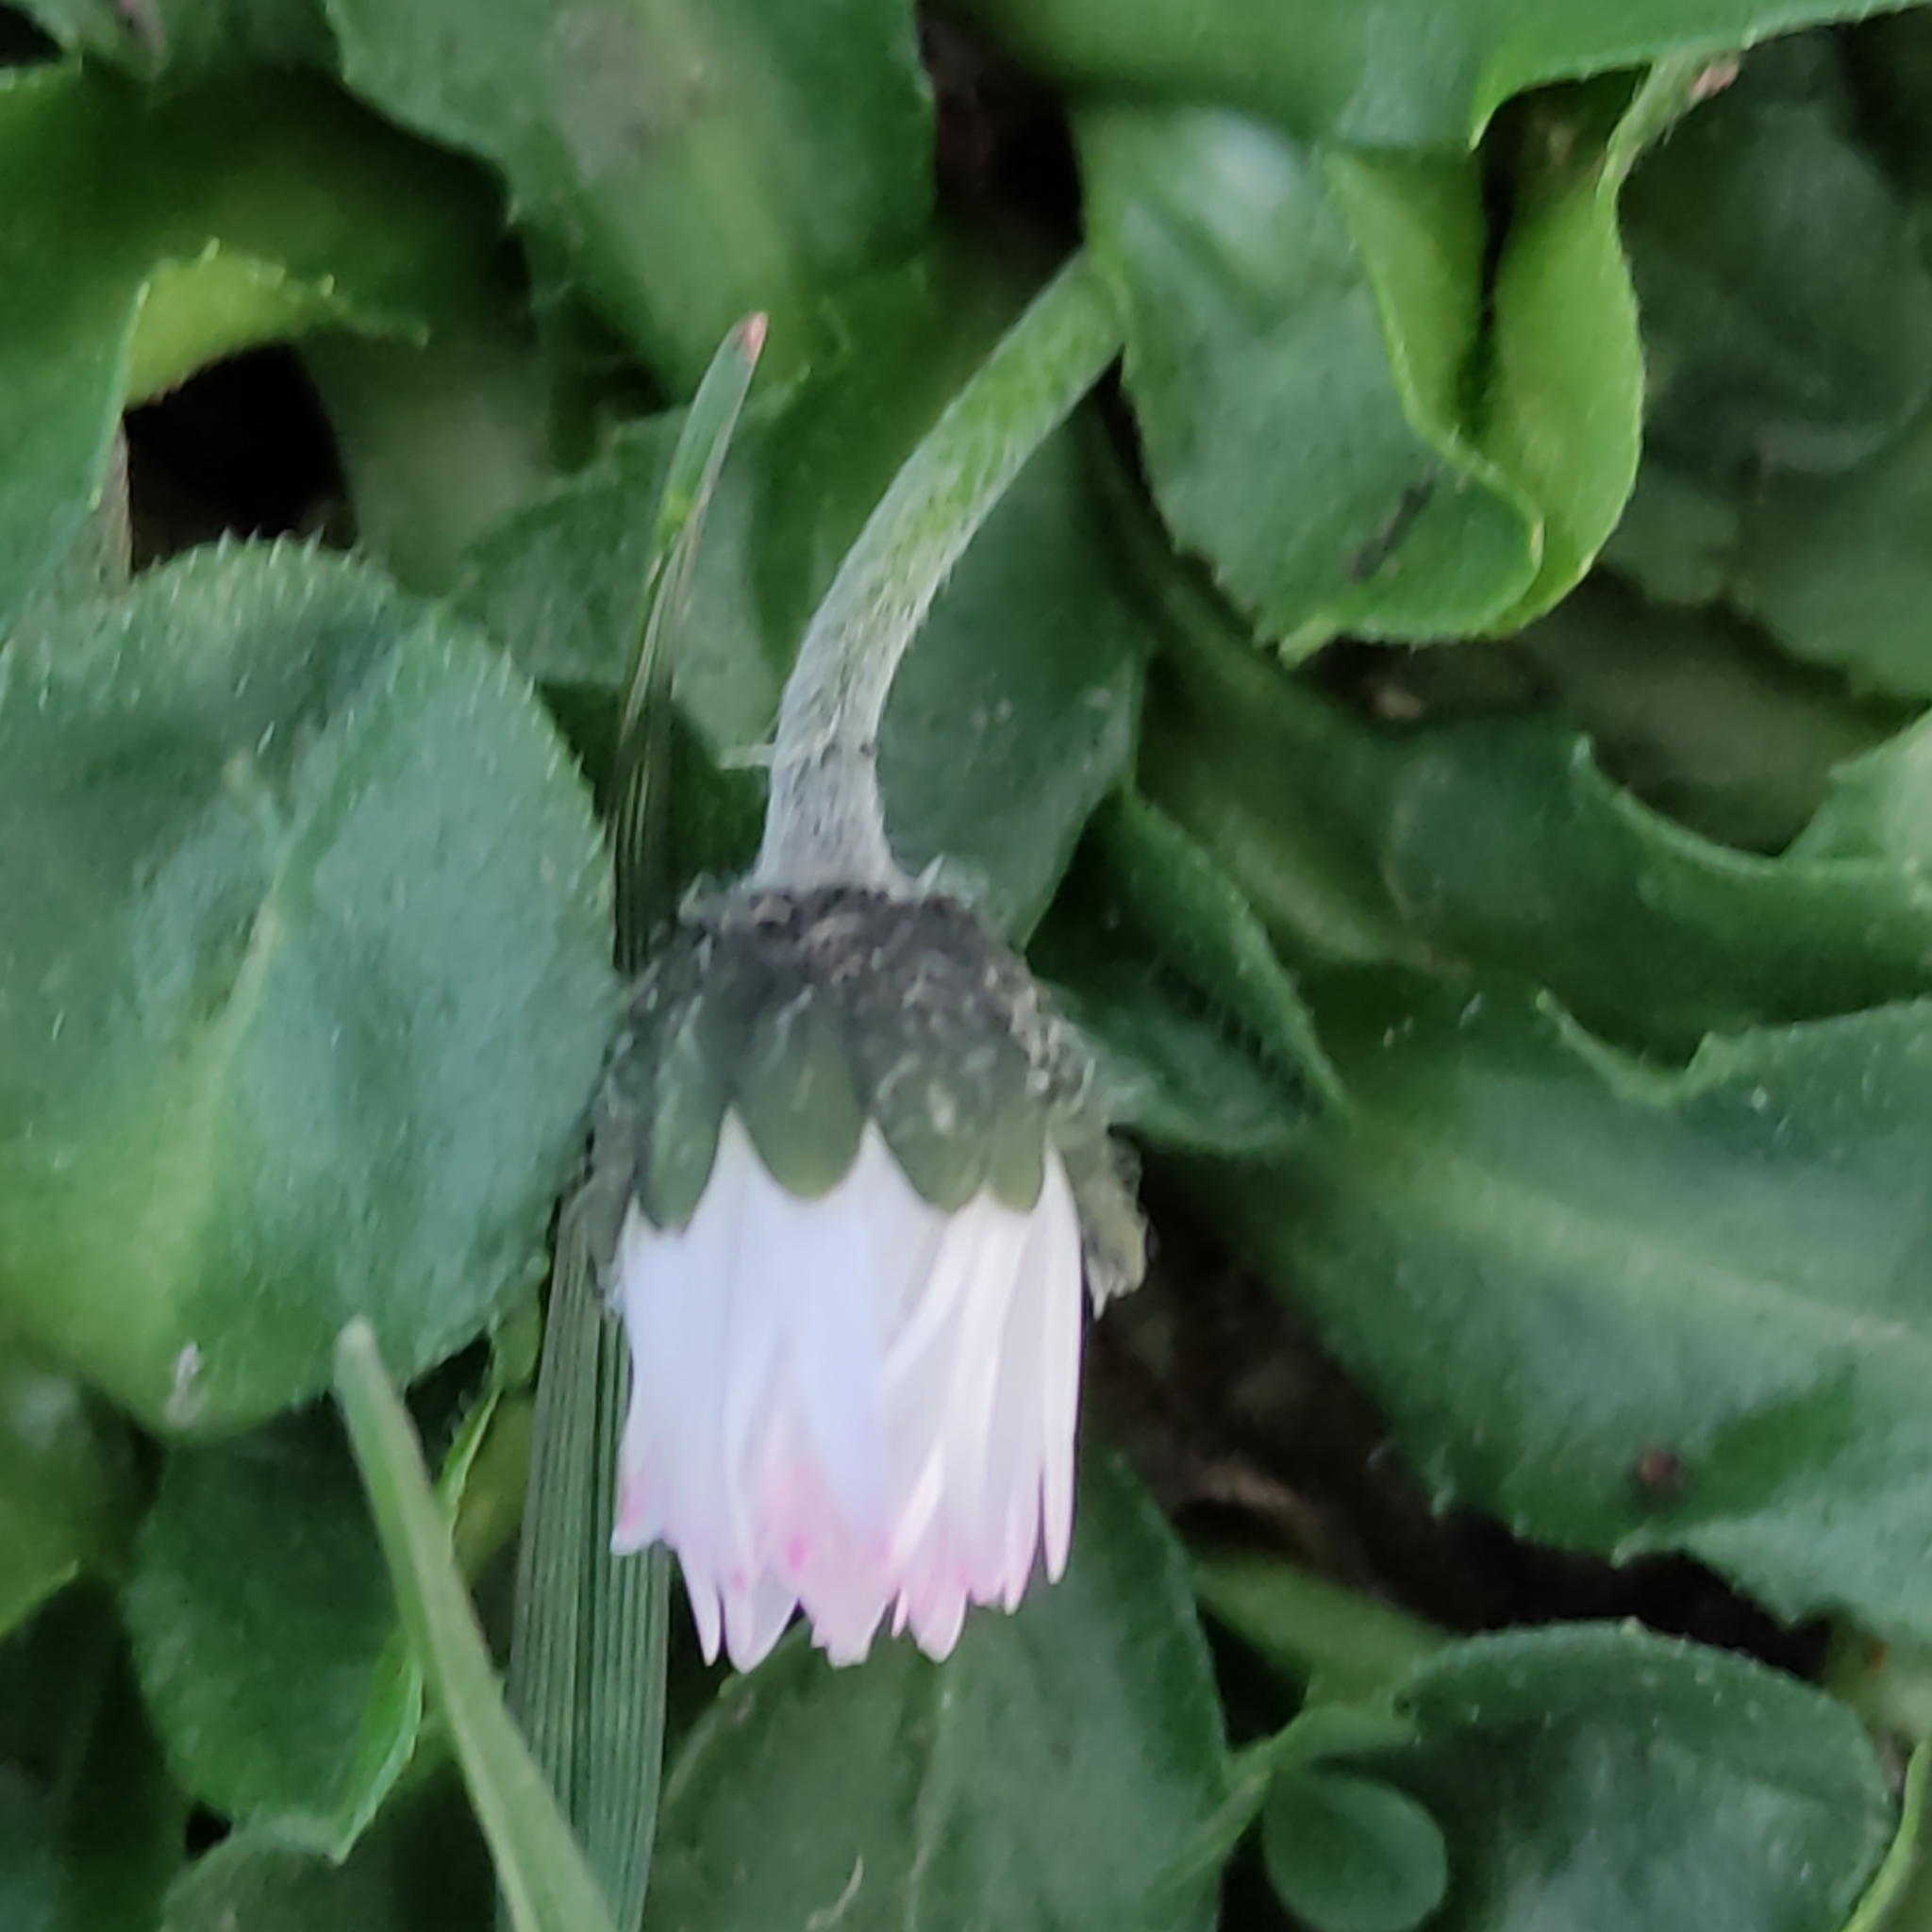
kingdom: Plantae
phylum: Tracheophyta
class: Magnoliopsida
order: Asterales
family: Asteraceae
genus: Bellis
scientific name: Bellis perennis
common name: Lawndaisy
